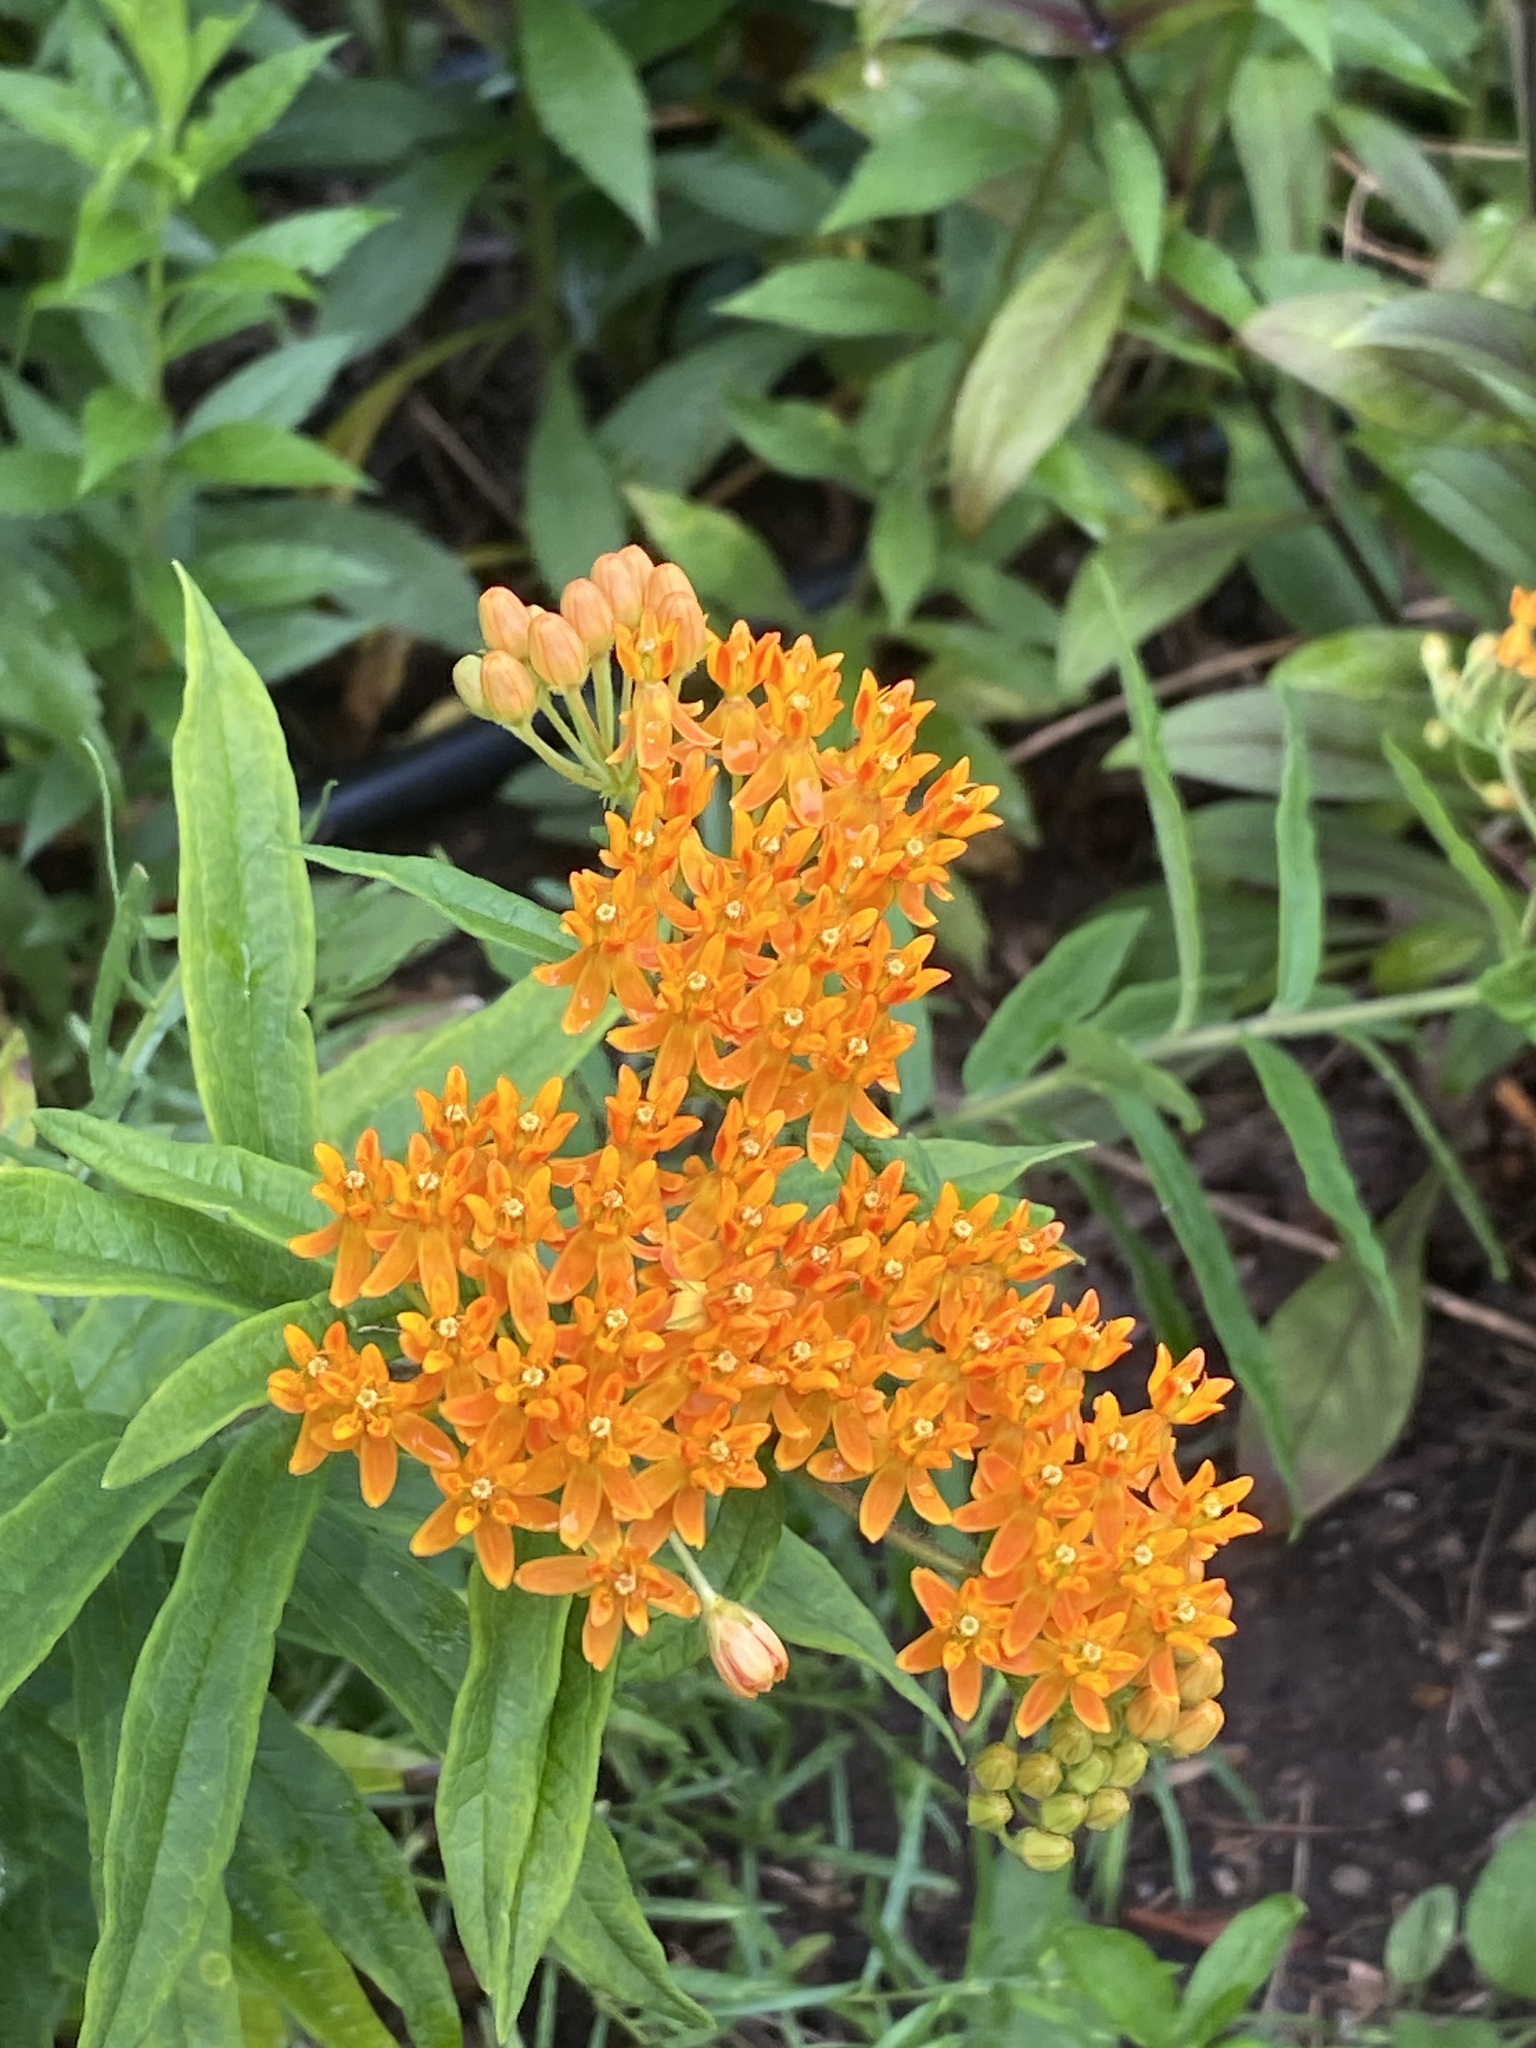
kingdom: Plantae
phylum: Tracheophyta
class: Magnoliopsida
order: Gentianales
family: Apocynaceae
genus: Asclepias
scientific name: Asclepias tuberosa
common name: Butterfly milkweed
